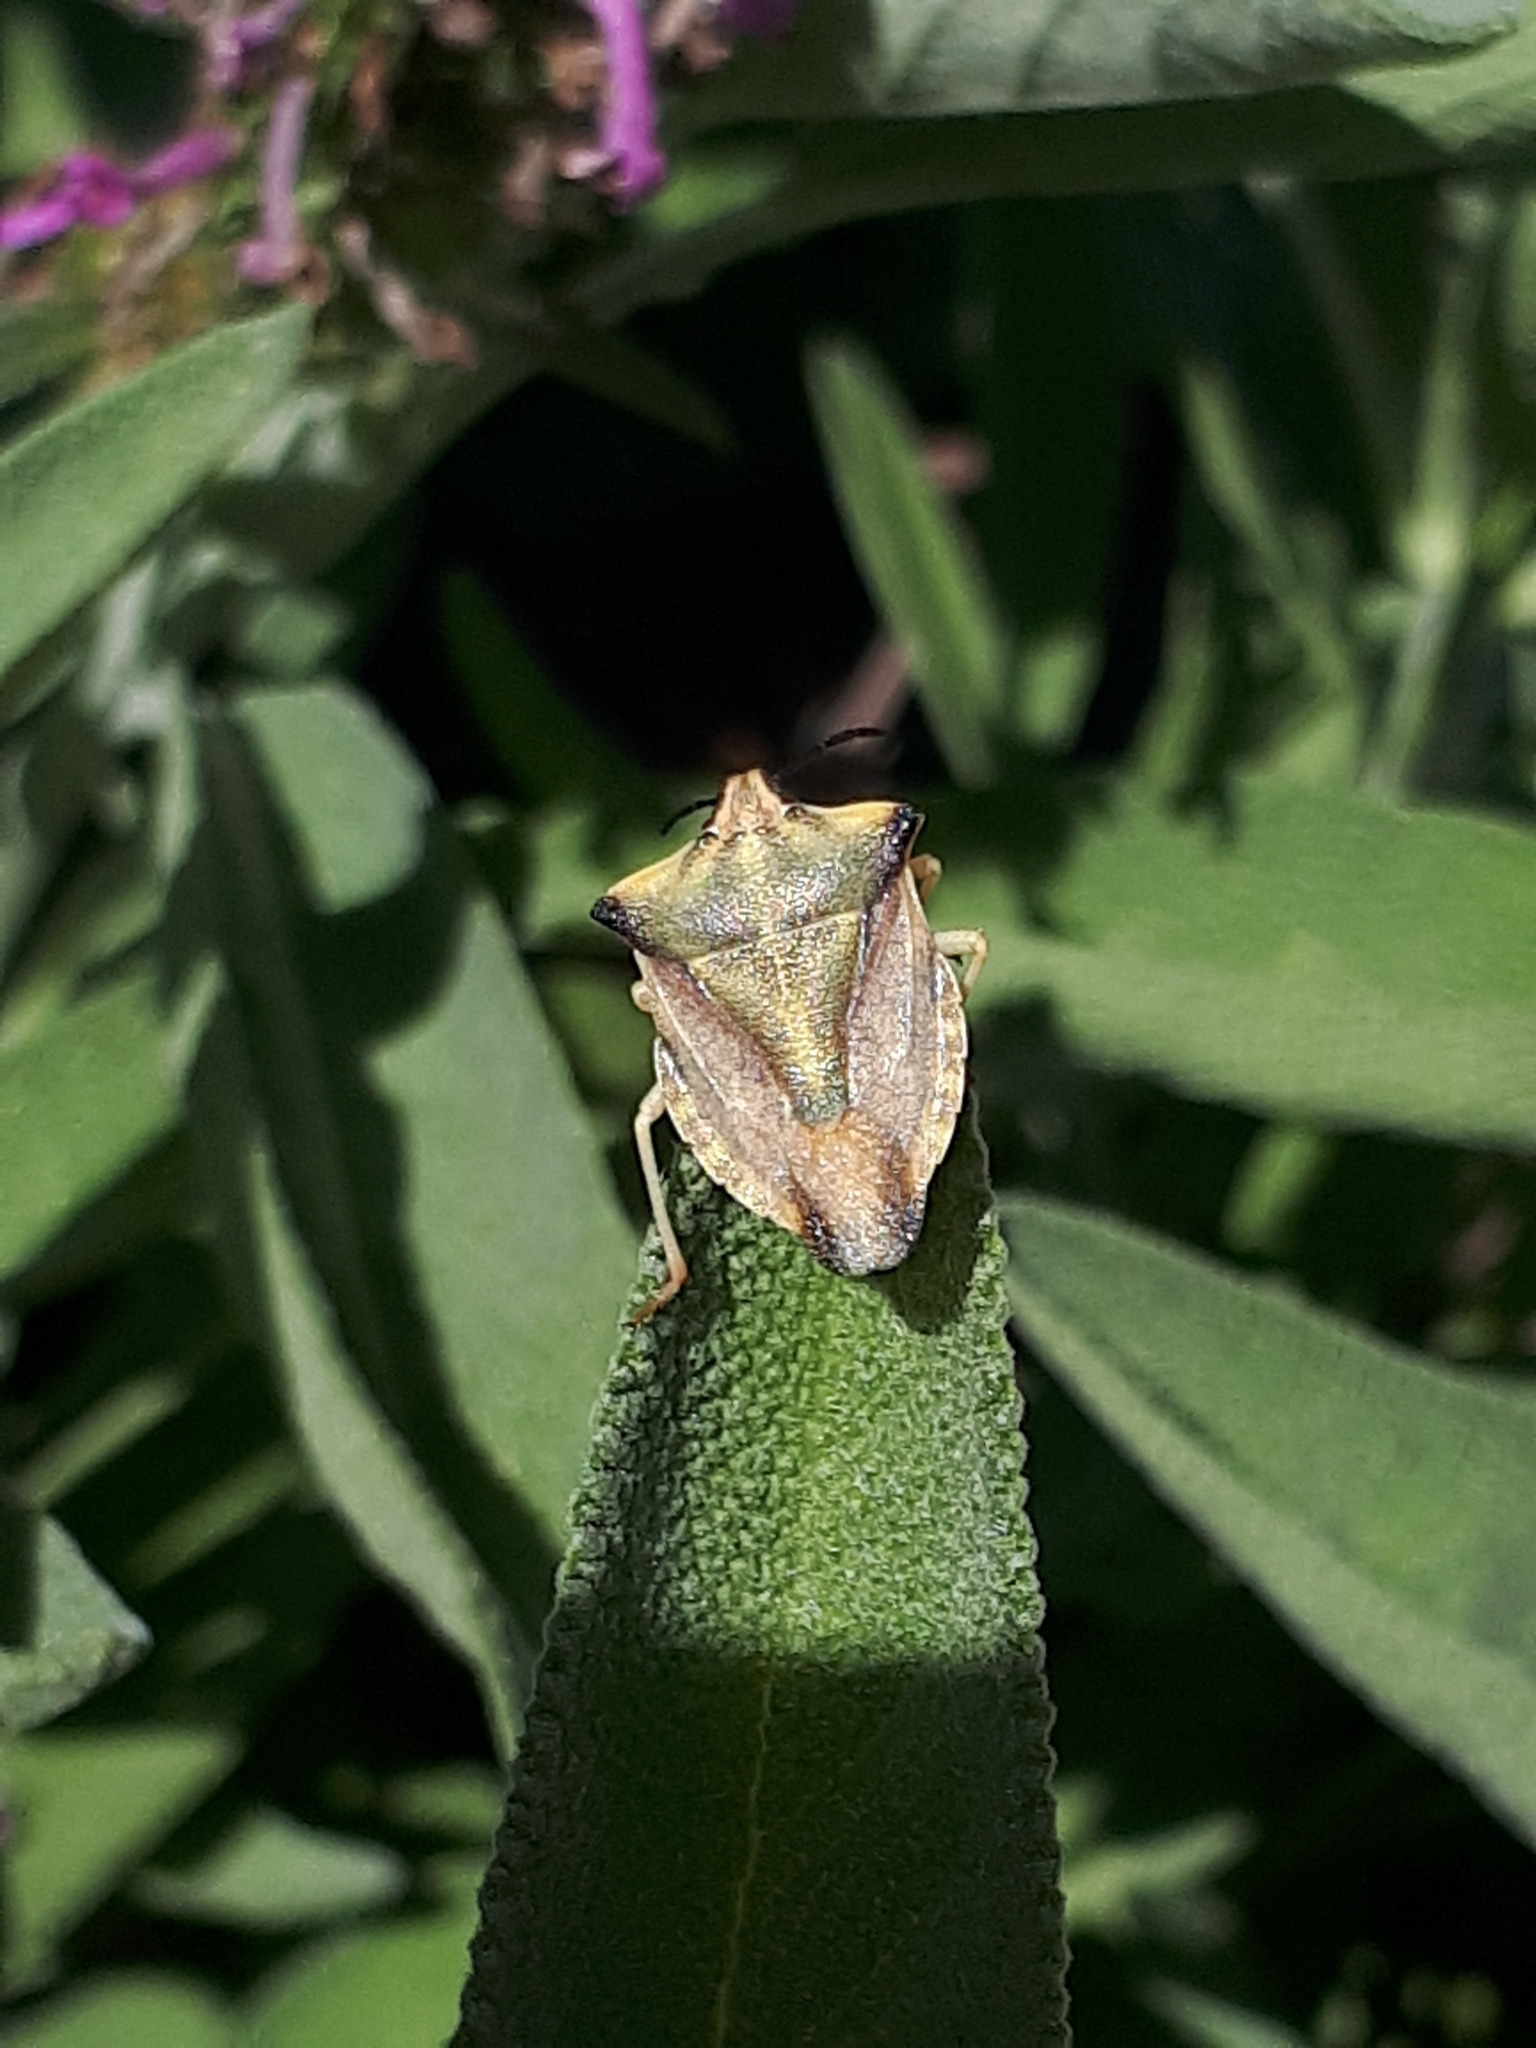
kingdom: Animalia
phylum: Arthropoda
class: Insecta
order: Hemiptera
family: Pentatomidae
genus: Carpocoris
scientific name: Carpocoris fuscispinus
